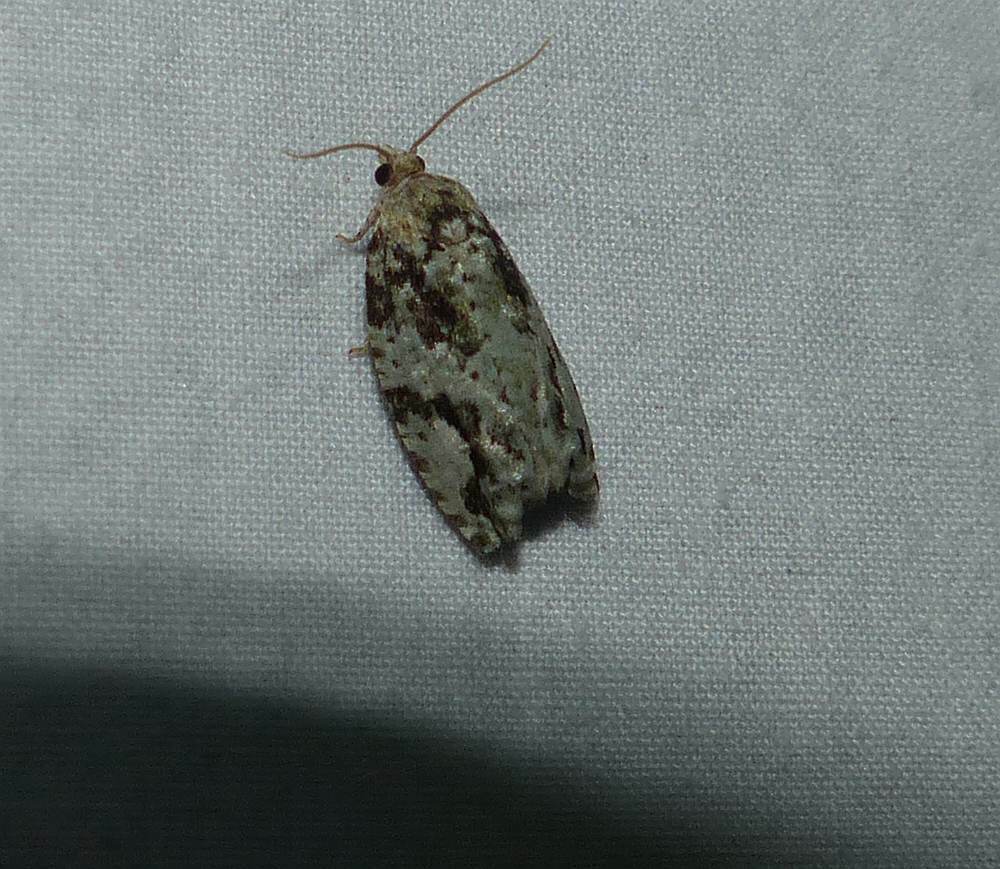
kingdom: Animalia
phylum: Arthropoda
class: Insecta
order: Lepidoptera
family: Tortricidae
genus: Proteoteras
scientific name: Proteoteras moffatiana
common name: Maple bud borer moth
